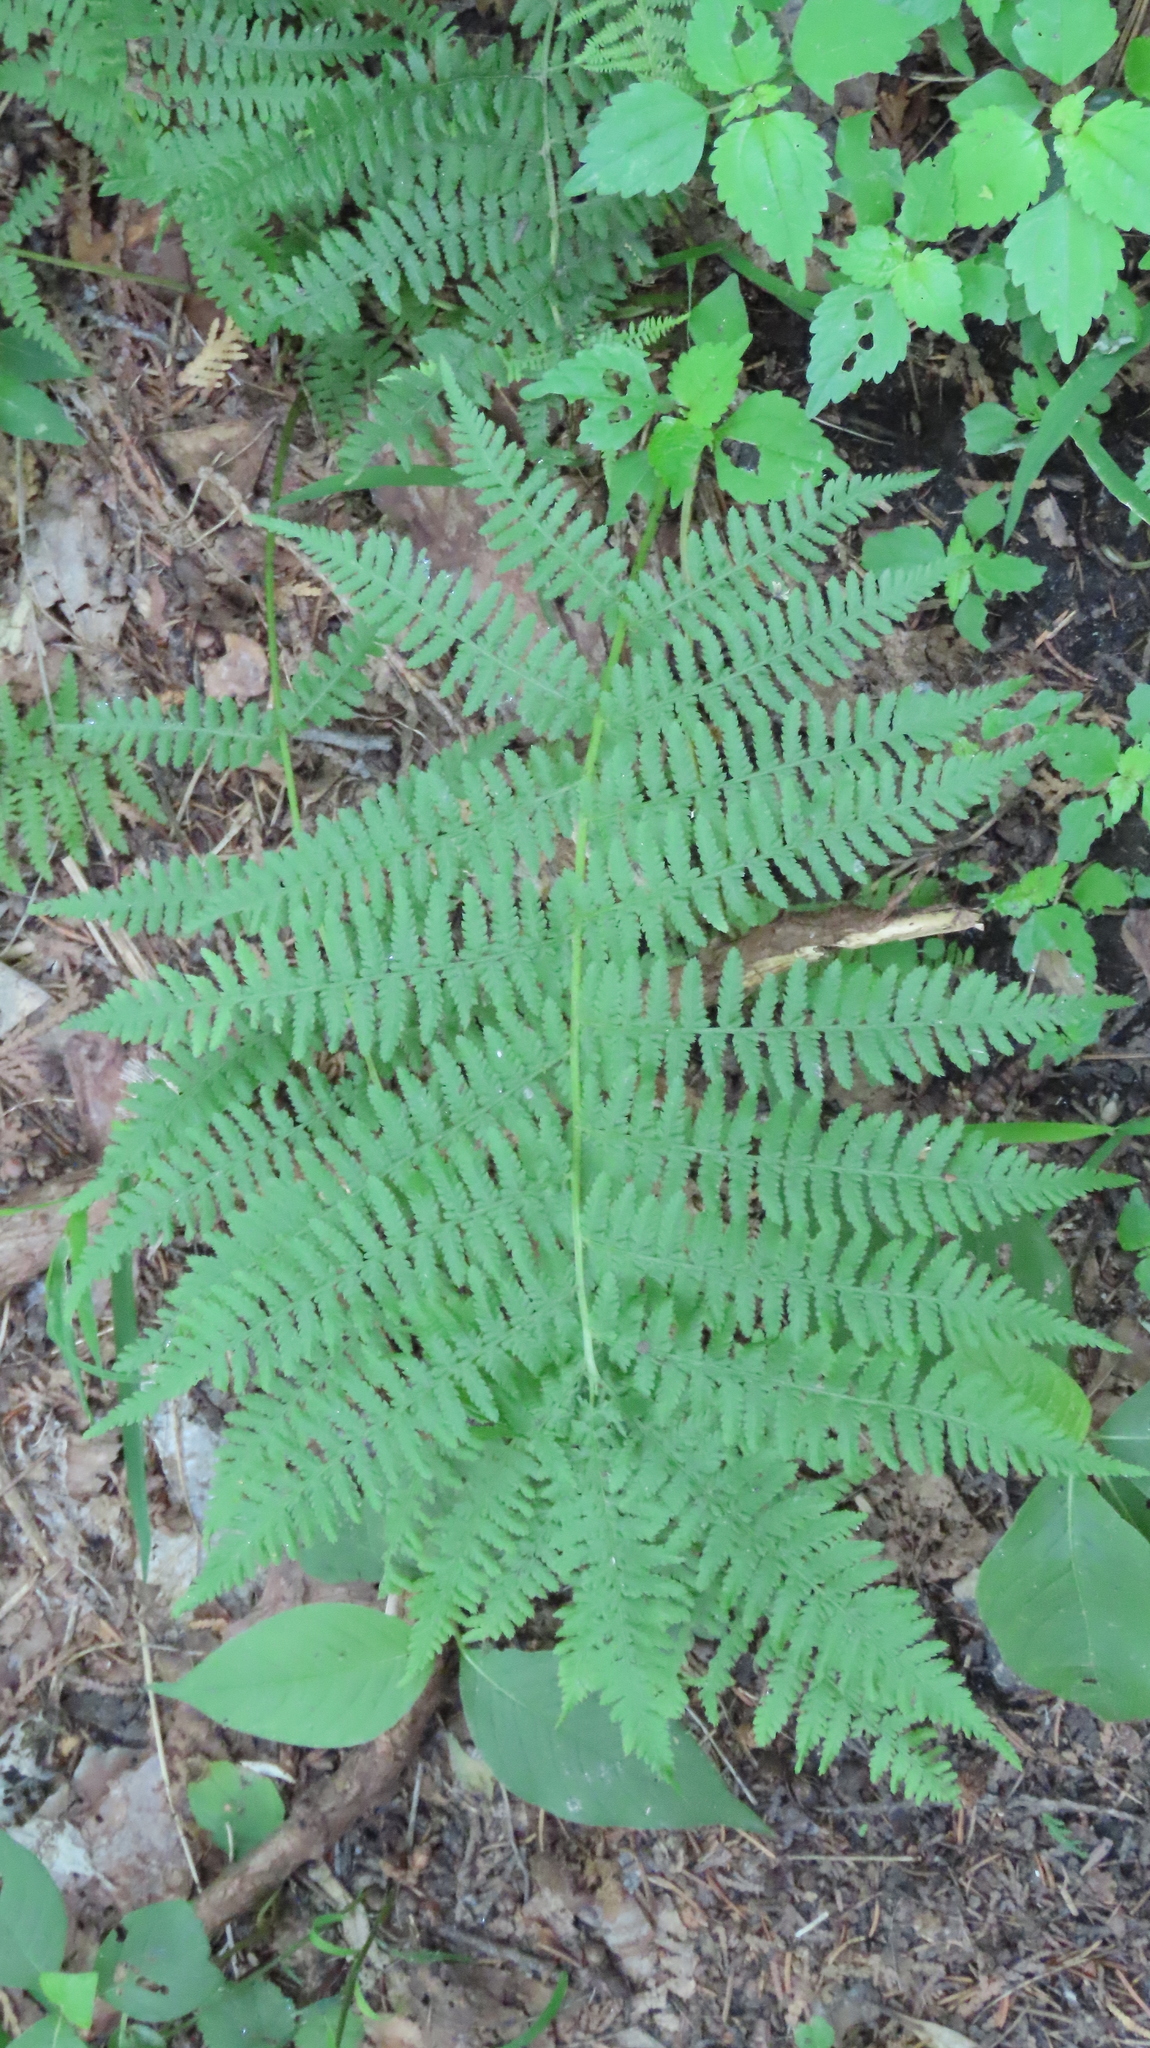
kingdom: Plantae
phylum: Tracheophyta
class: Polypodiopsida
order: Polypodiales
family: Athyriaceae
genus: Athyrium
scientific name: Athyrium angustum
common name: Northern lady fern
